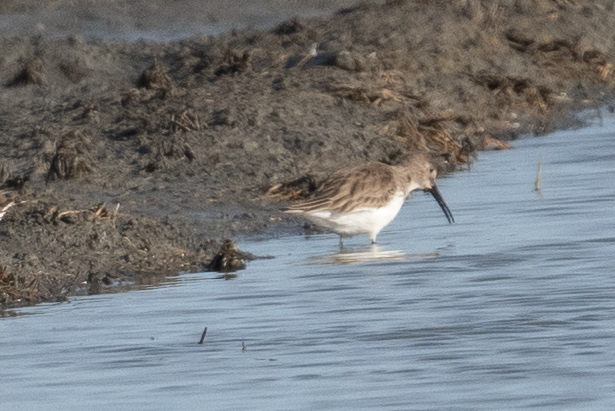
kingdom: Animalia
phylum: Chordata
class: Aves
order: Charadriiformes
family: Scolopacidae
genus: Calidris
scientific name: Calidris alpina
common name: Dunlin
